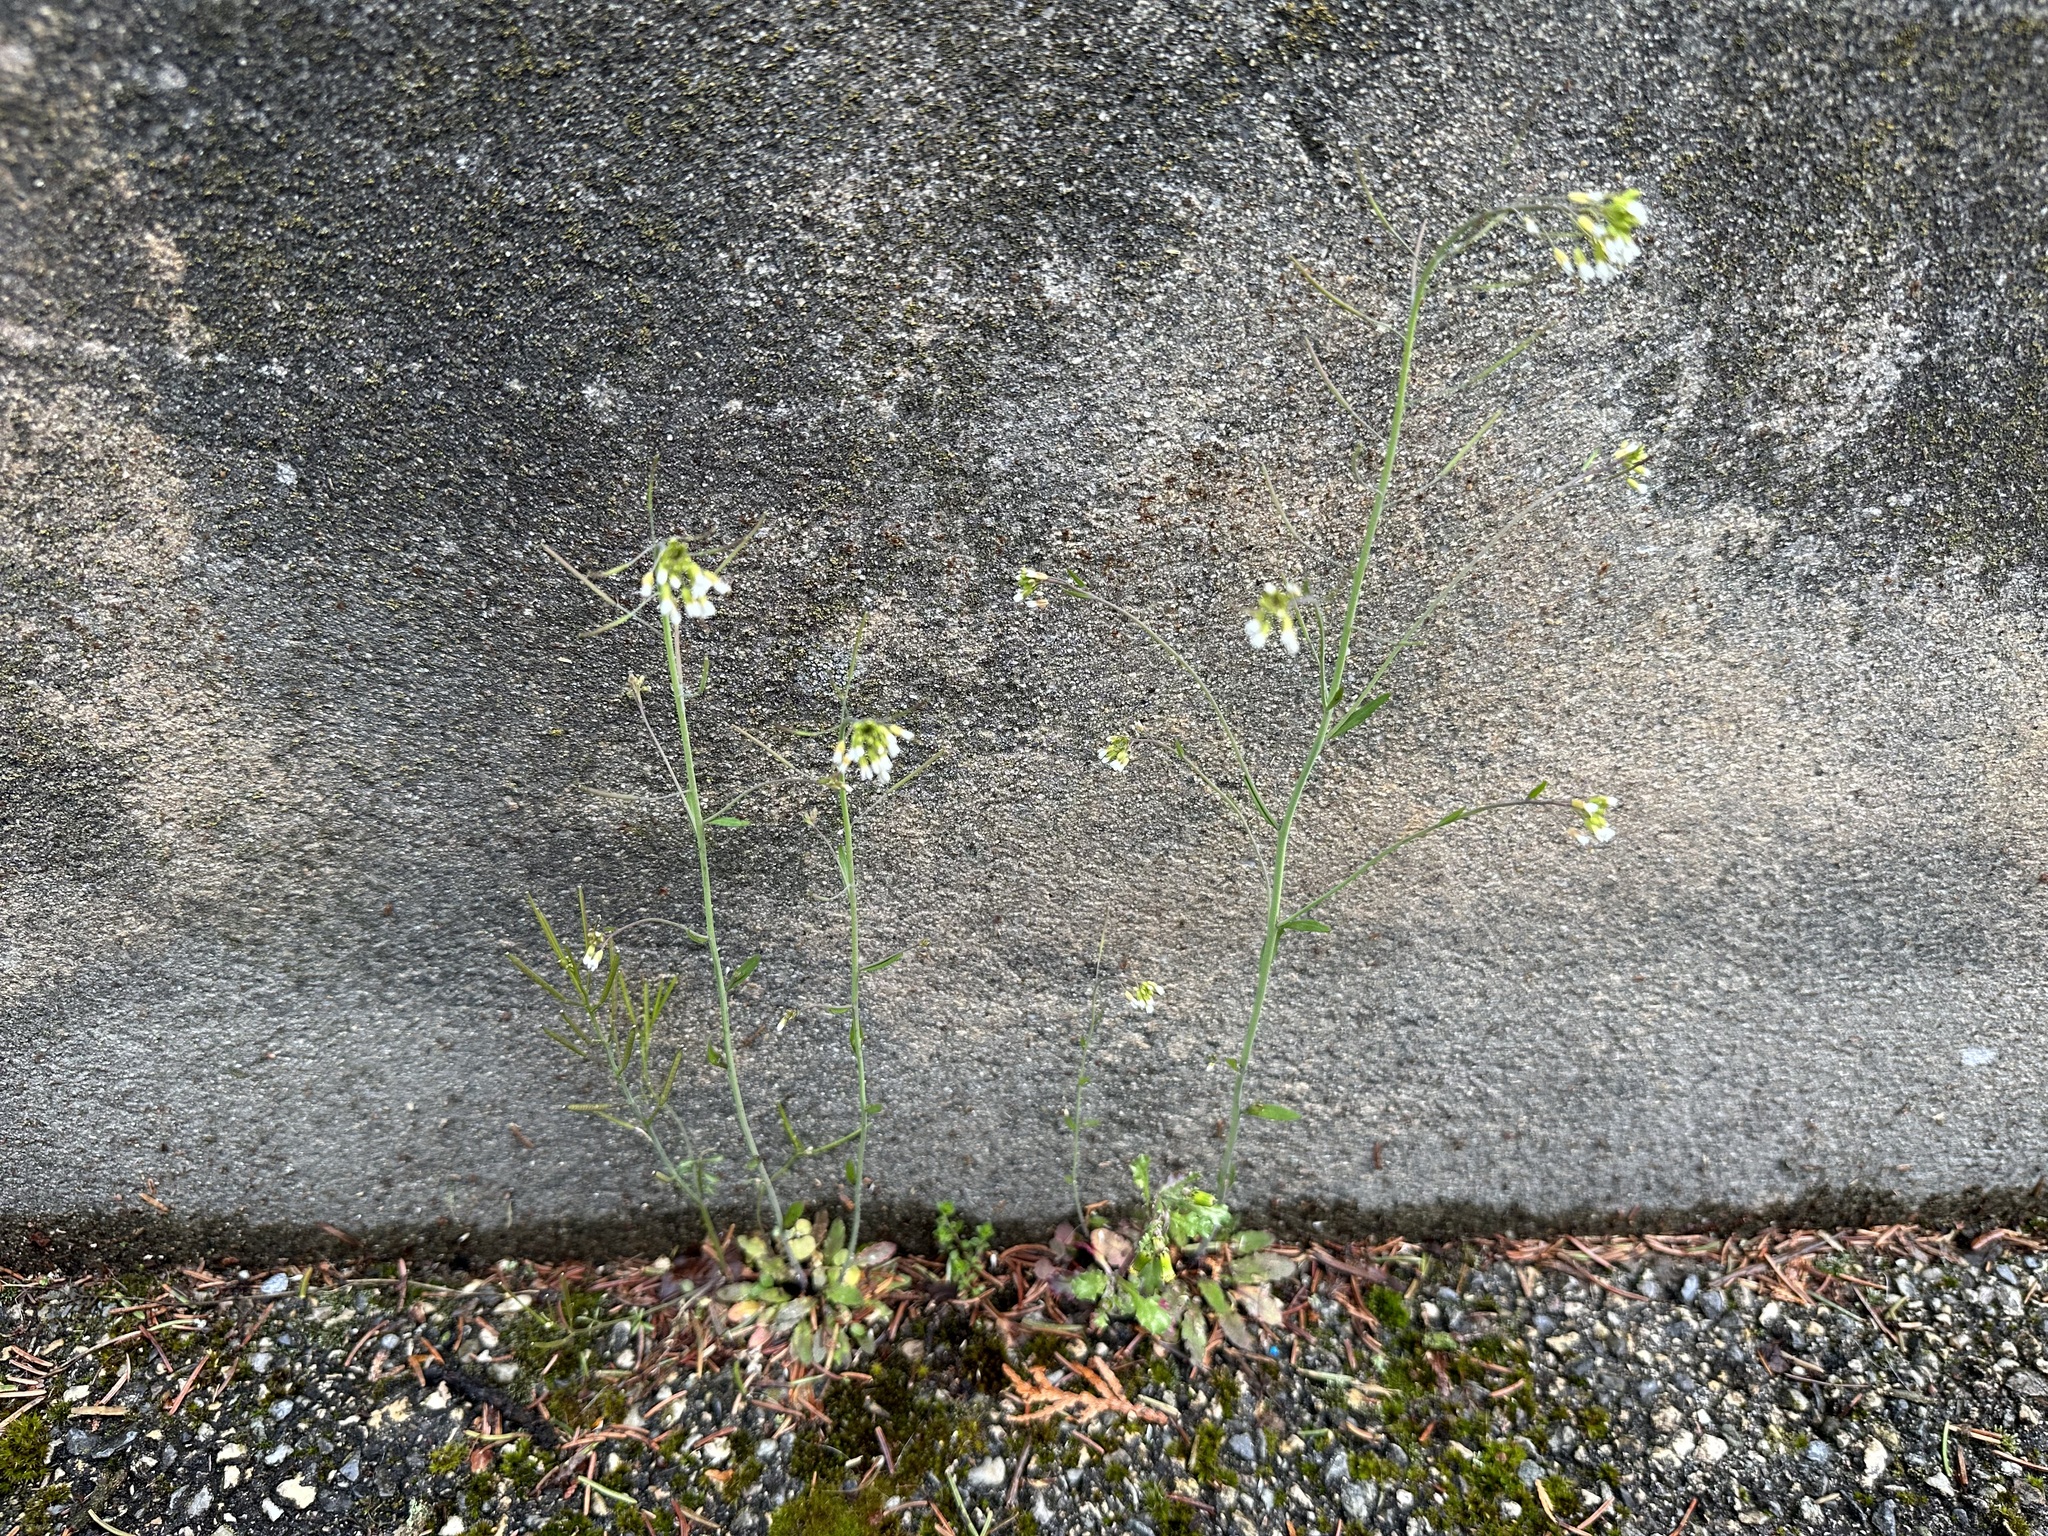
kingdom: Plantae
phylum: Tracheophyta
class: Magnoliopsida
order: Brassicales
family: Brassicaceae
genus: Arabidopsis
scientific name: Arabidopsis thaliana
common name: Thale cress
